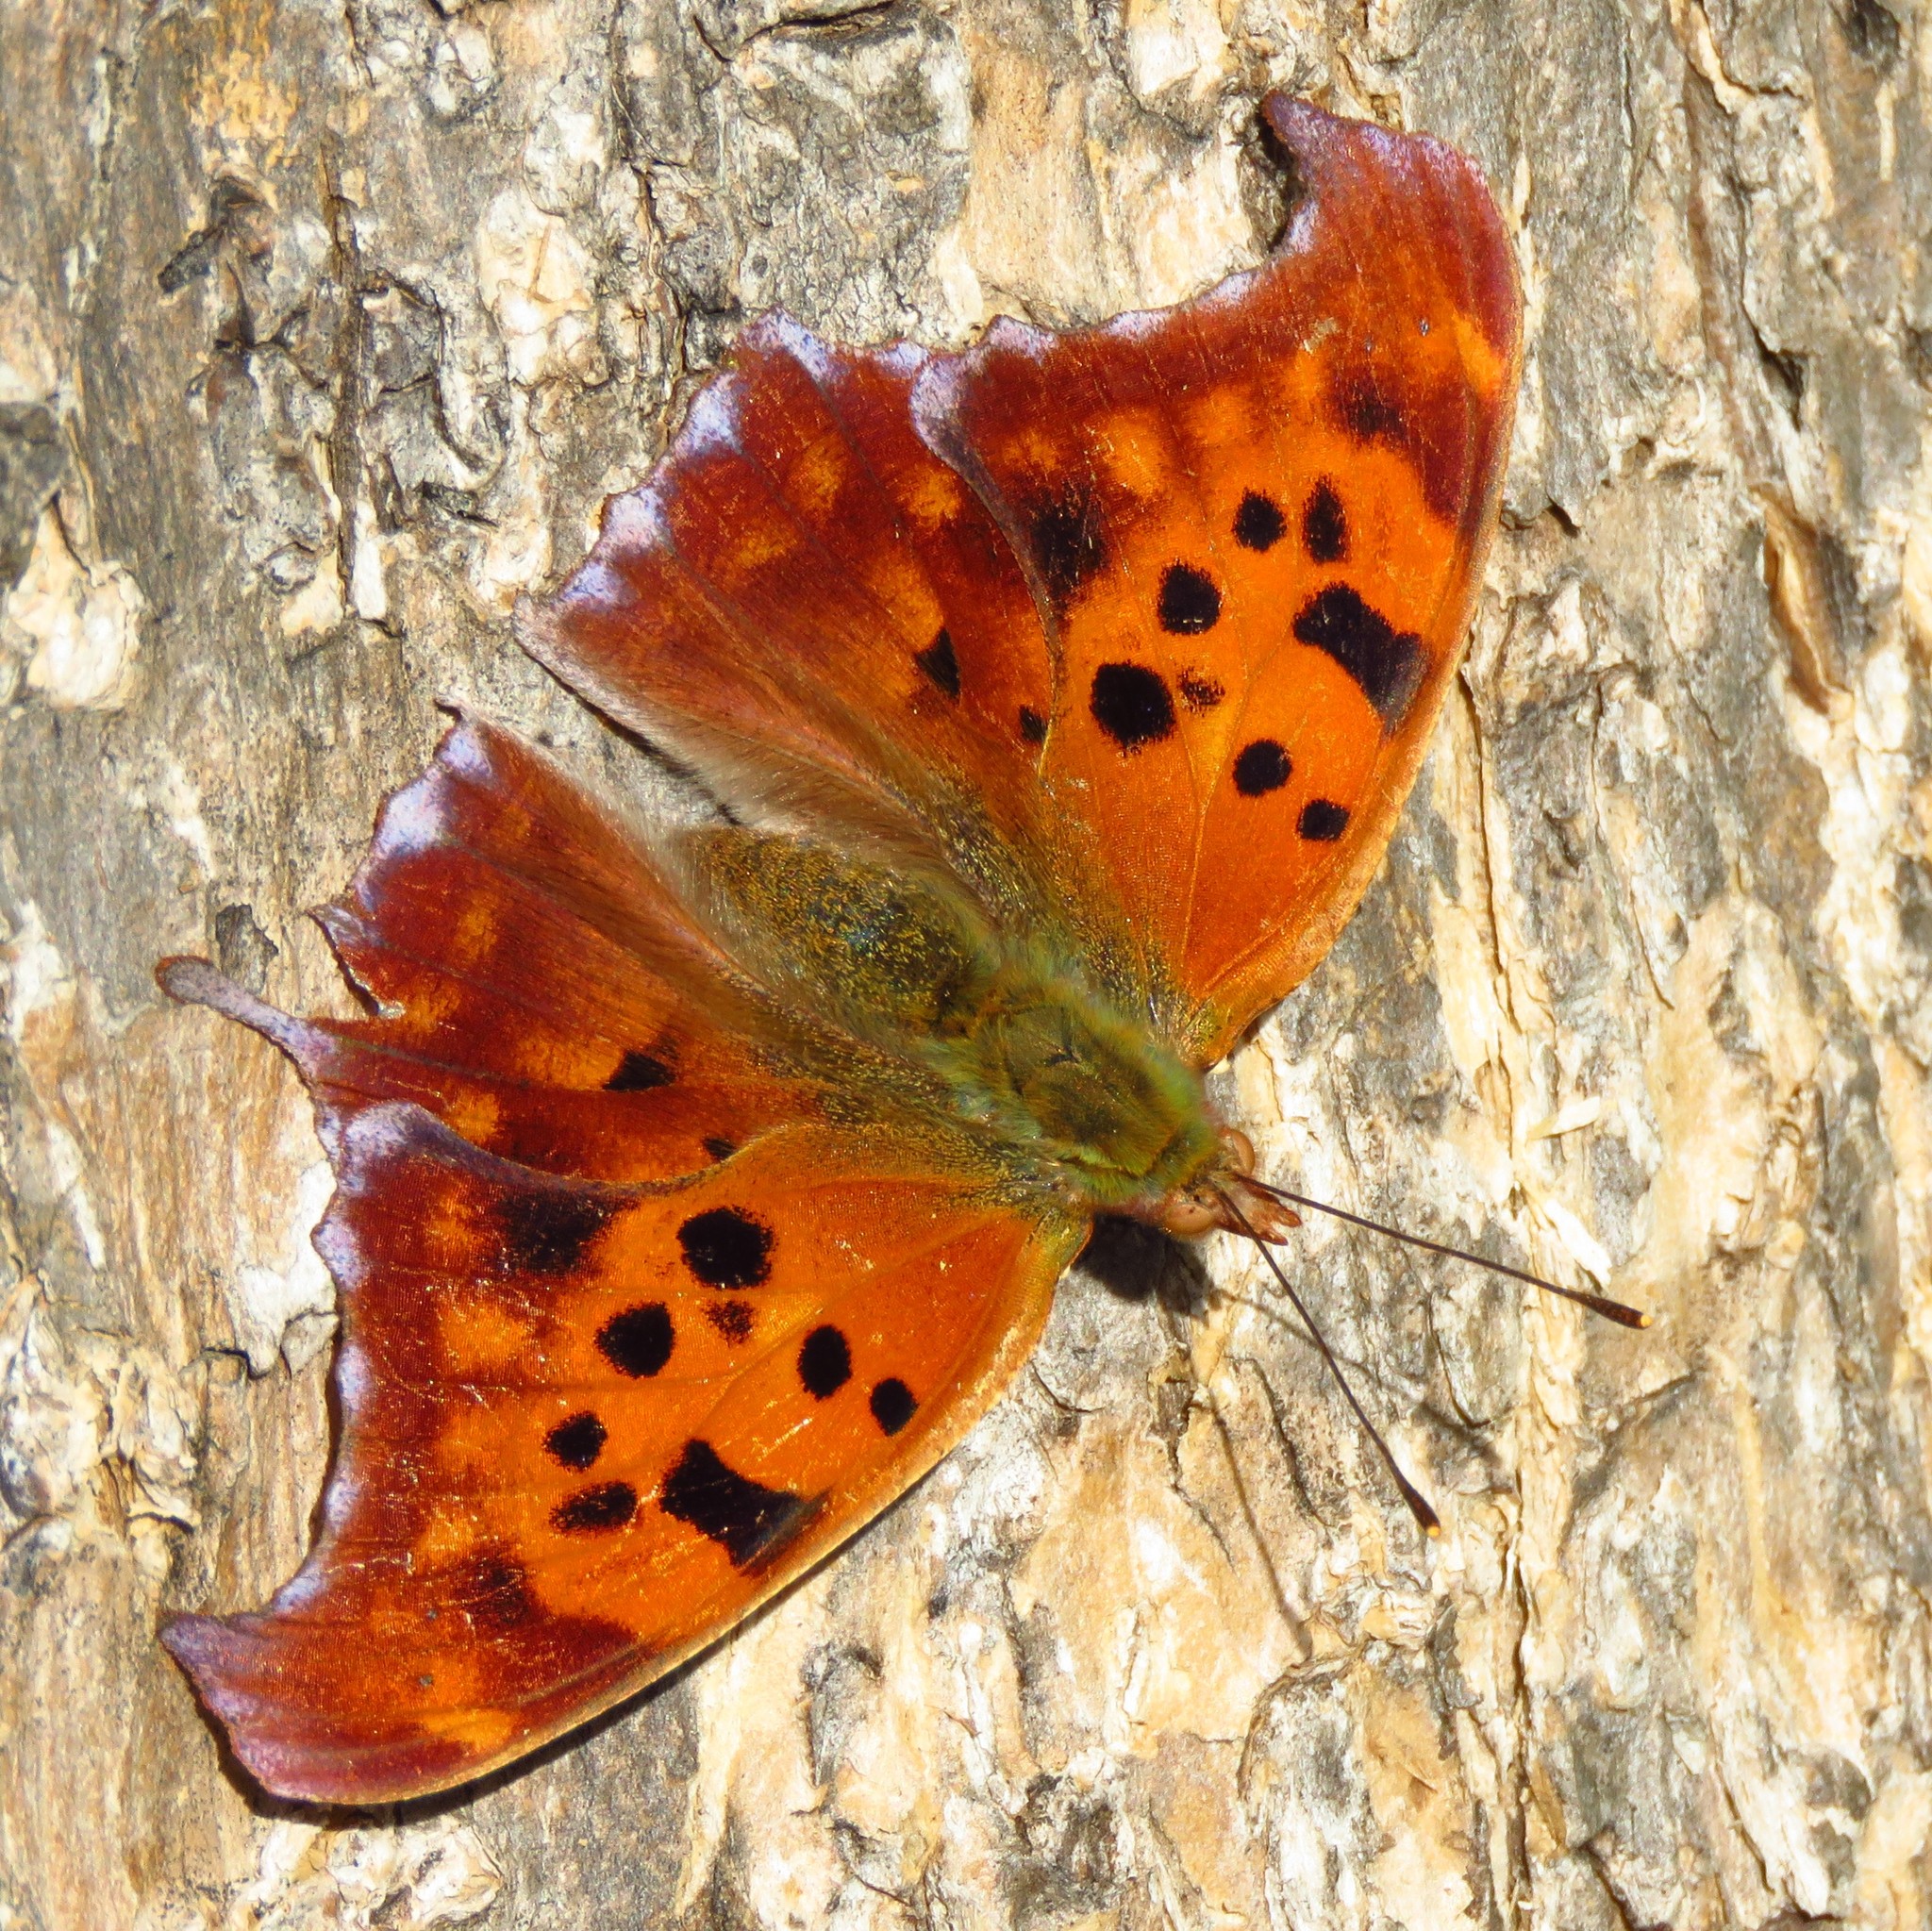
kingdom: Animalia
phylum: Arthropoda
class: Insecta
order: Lepidoptera
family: Nymphalidae
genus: Polygonia
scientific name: Polygonia interrogationis
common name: Question mark
